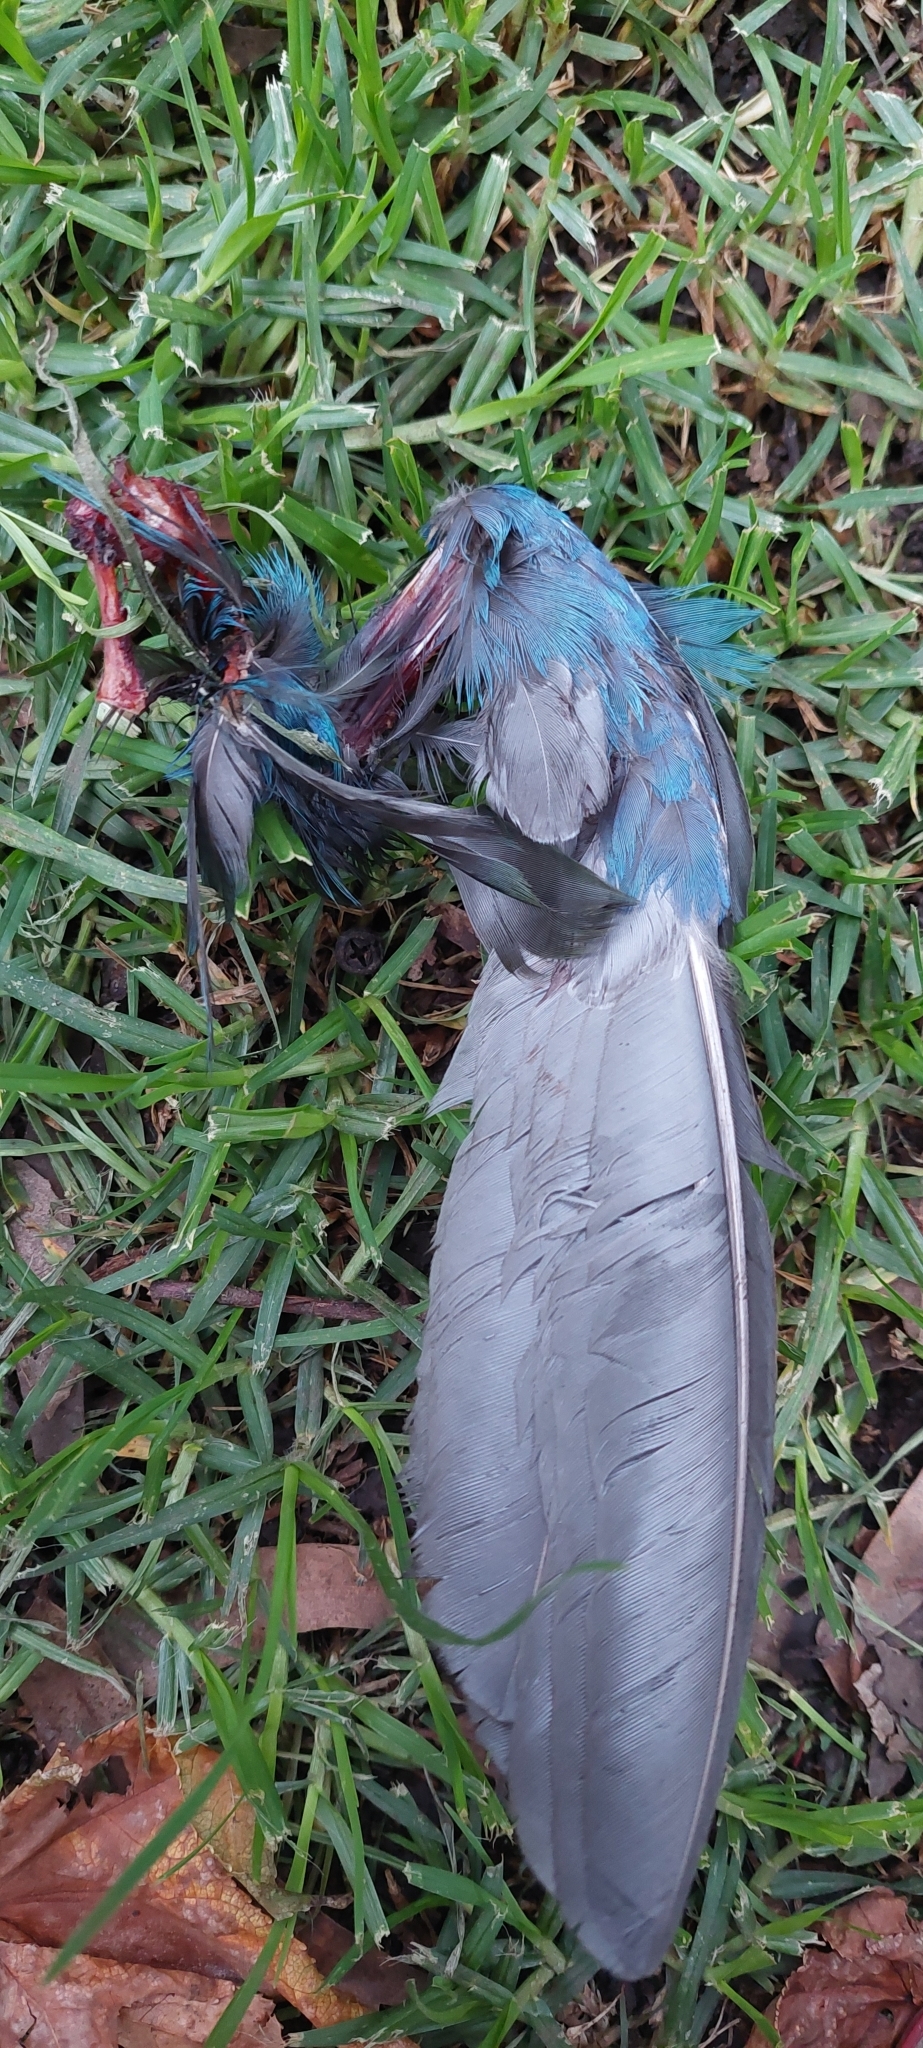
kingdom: Animalia
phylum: Chordata
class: Aves
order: Gruiformes
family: Rallidae
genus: Porphyrio
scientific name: Porphyrio martinica
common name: Purple gallinule
